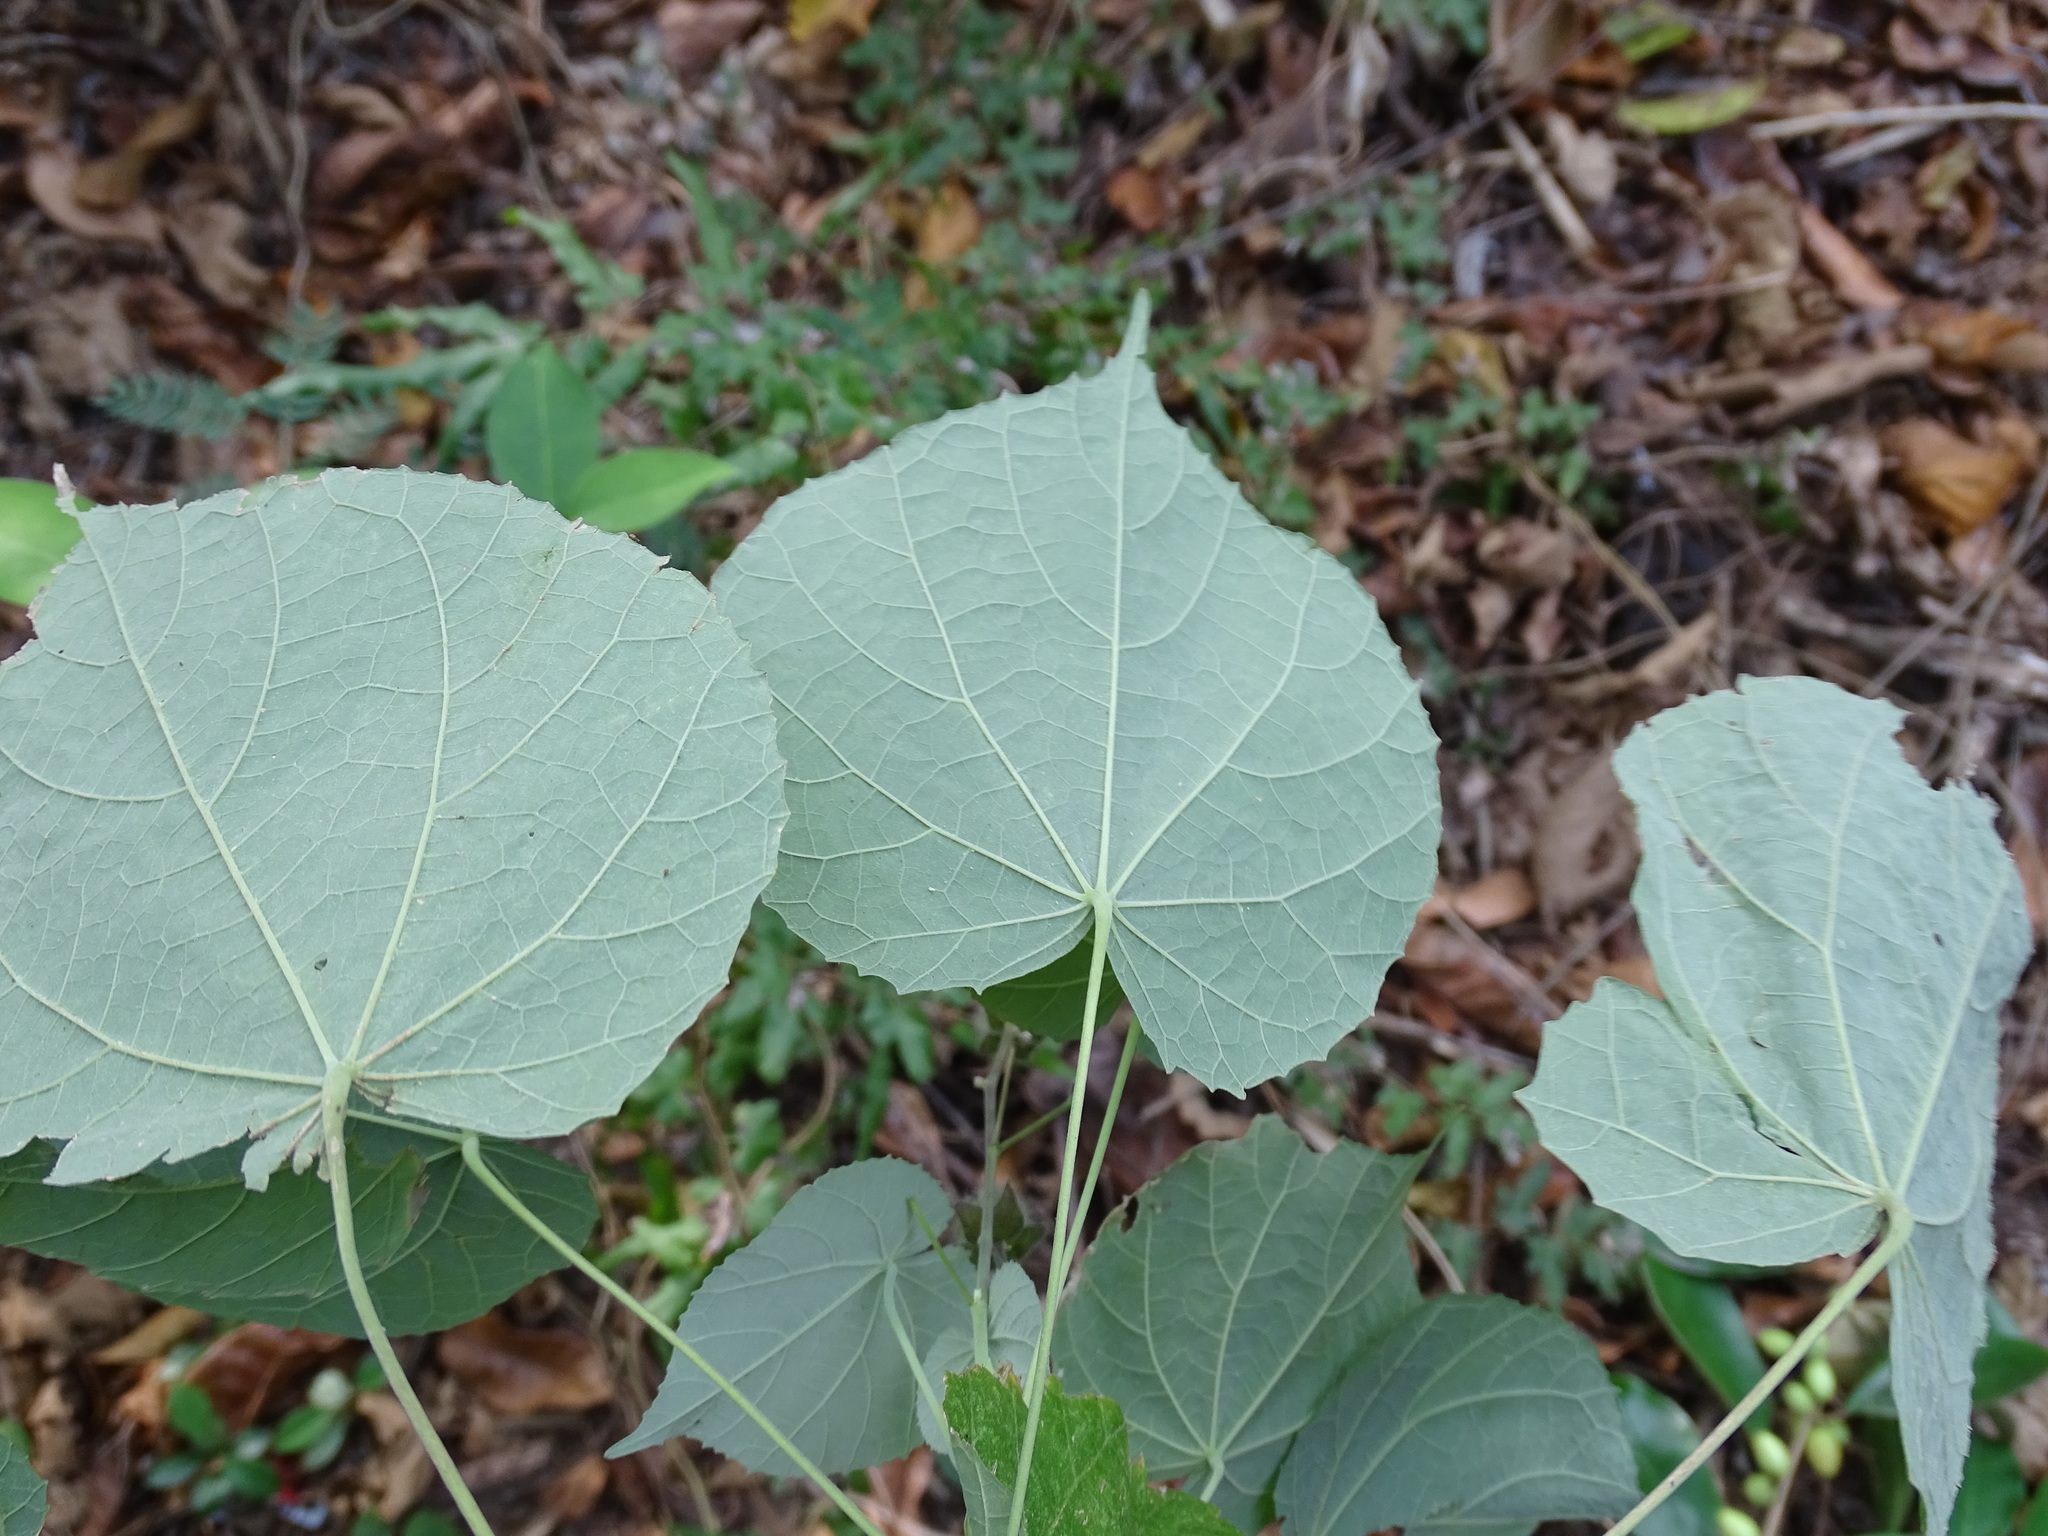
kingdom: Plantae
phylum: Tracheophyta
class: Magnoliopsida
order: Malvales
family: Malvaceae
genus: Abutilon
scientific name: Abutilon haenkeanum
